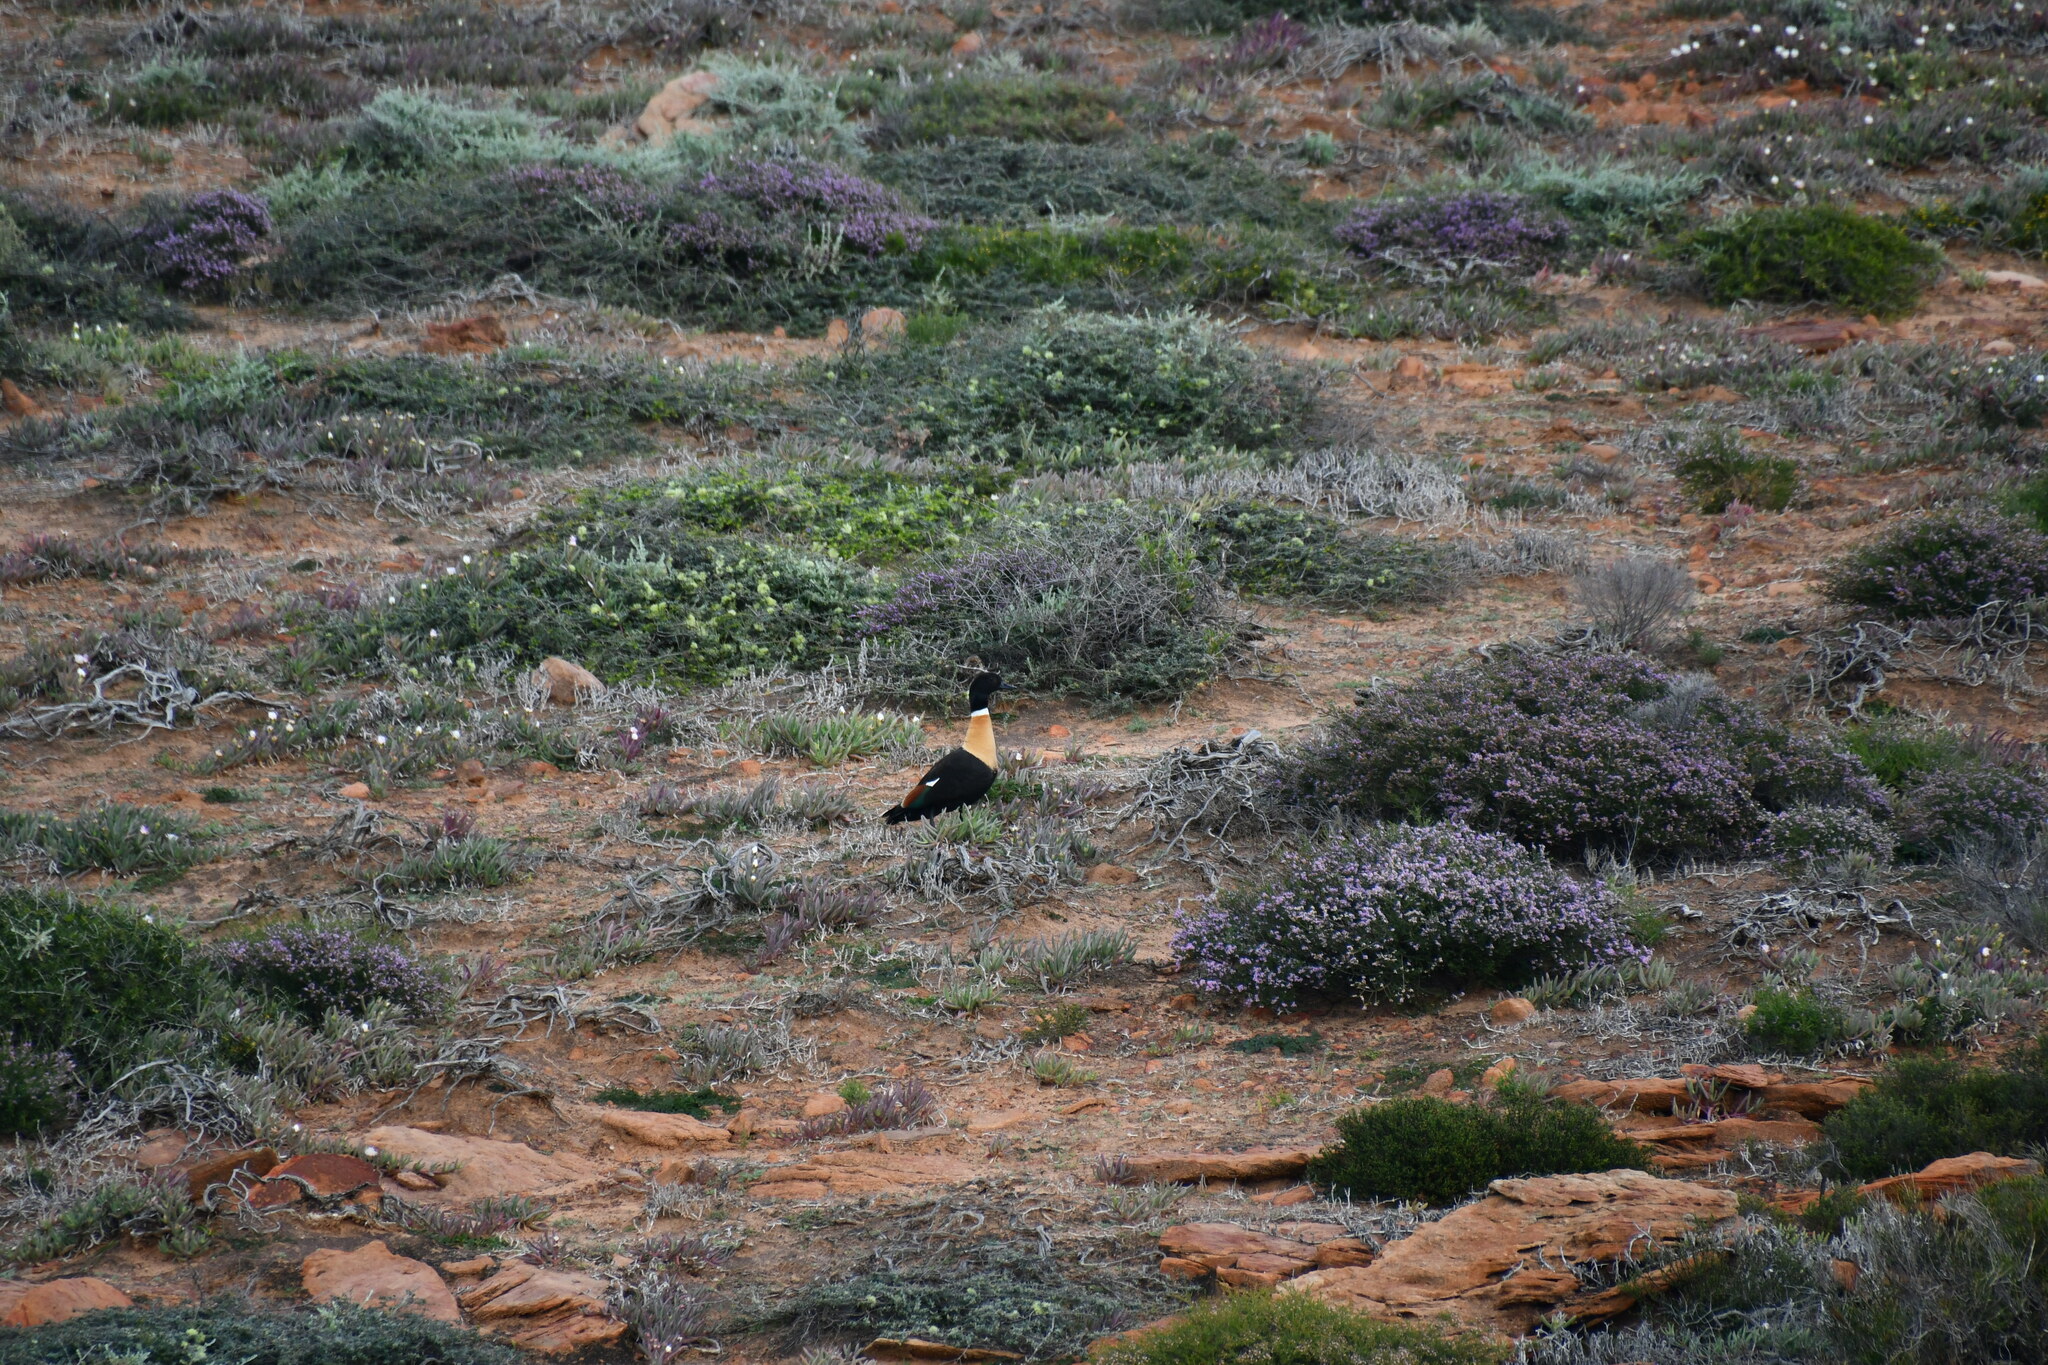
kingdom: Animalia
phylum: Chordata
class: Aves
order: Anseriformes
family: Anatidae
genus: Tadorna
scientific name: Tadorna tadornoides
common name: Australian shelduck
